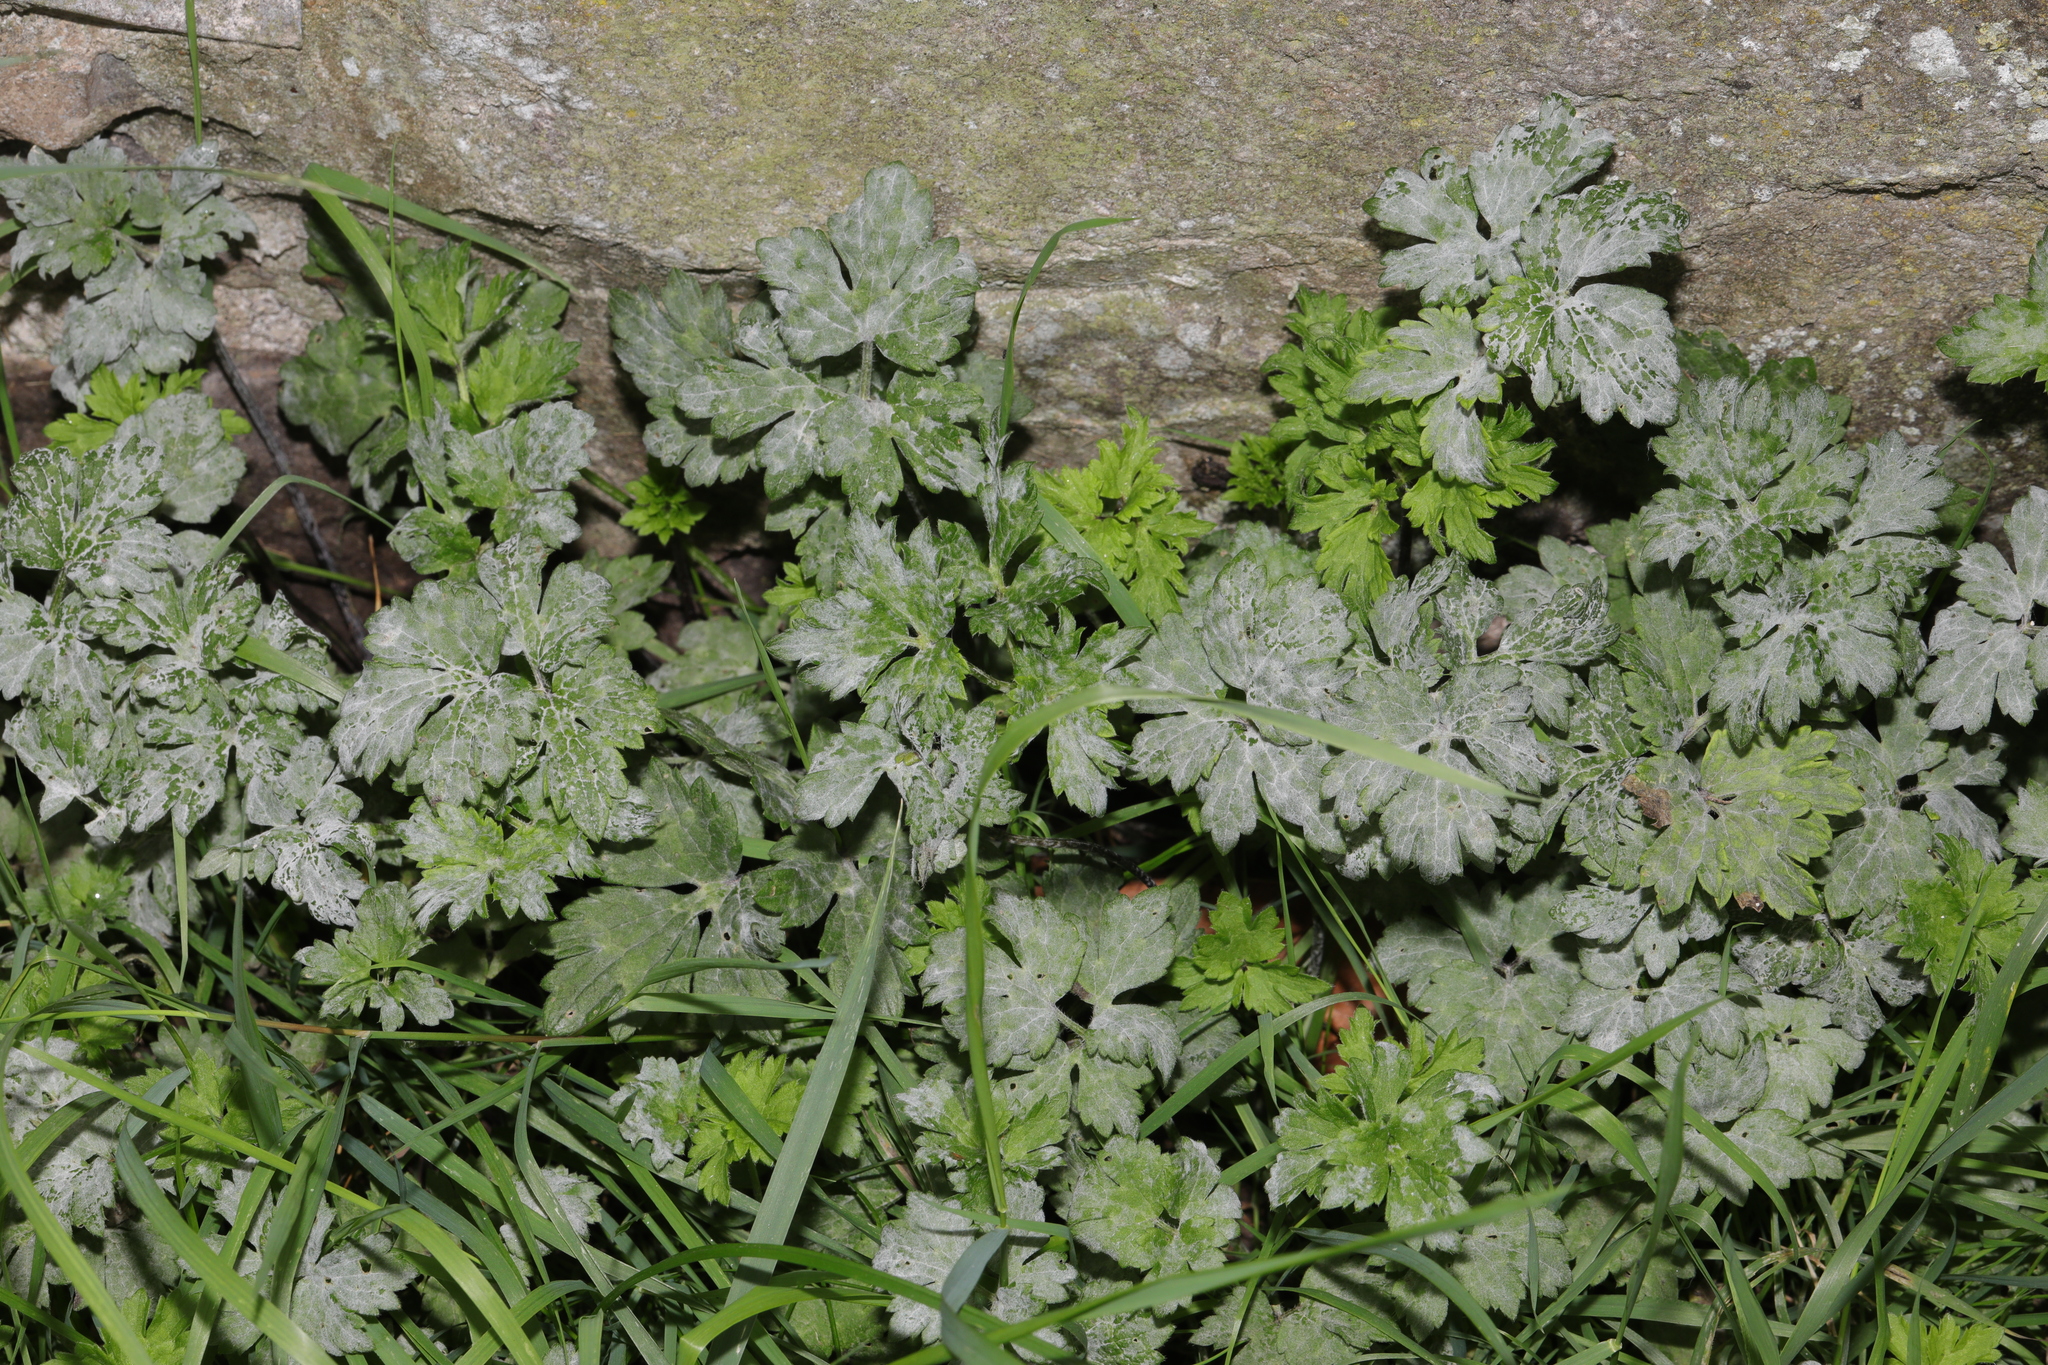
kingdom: Plantae
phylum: Tracheophyta
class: Magnoliopsida
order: Ranunculales
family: Ranunculaceae
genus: Ranunculus
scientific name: Ranunculus repens
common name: Creeping buttercup
